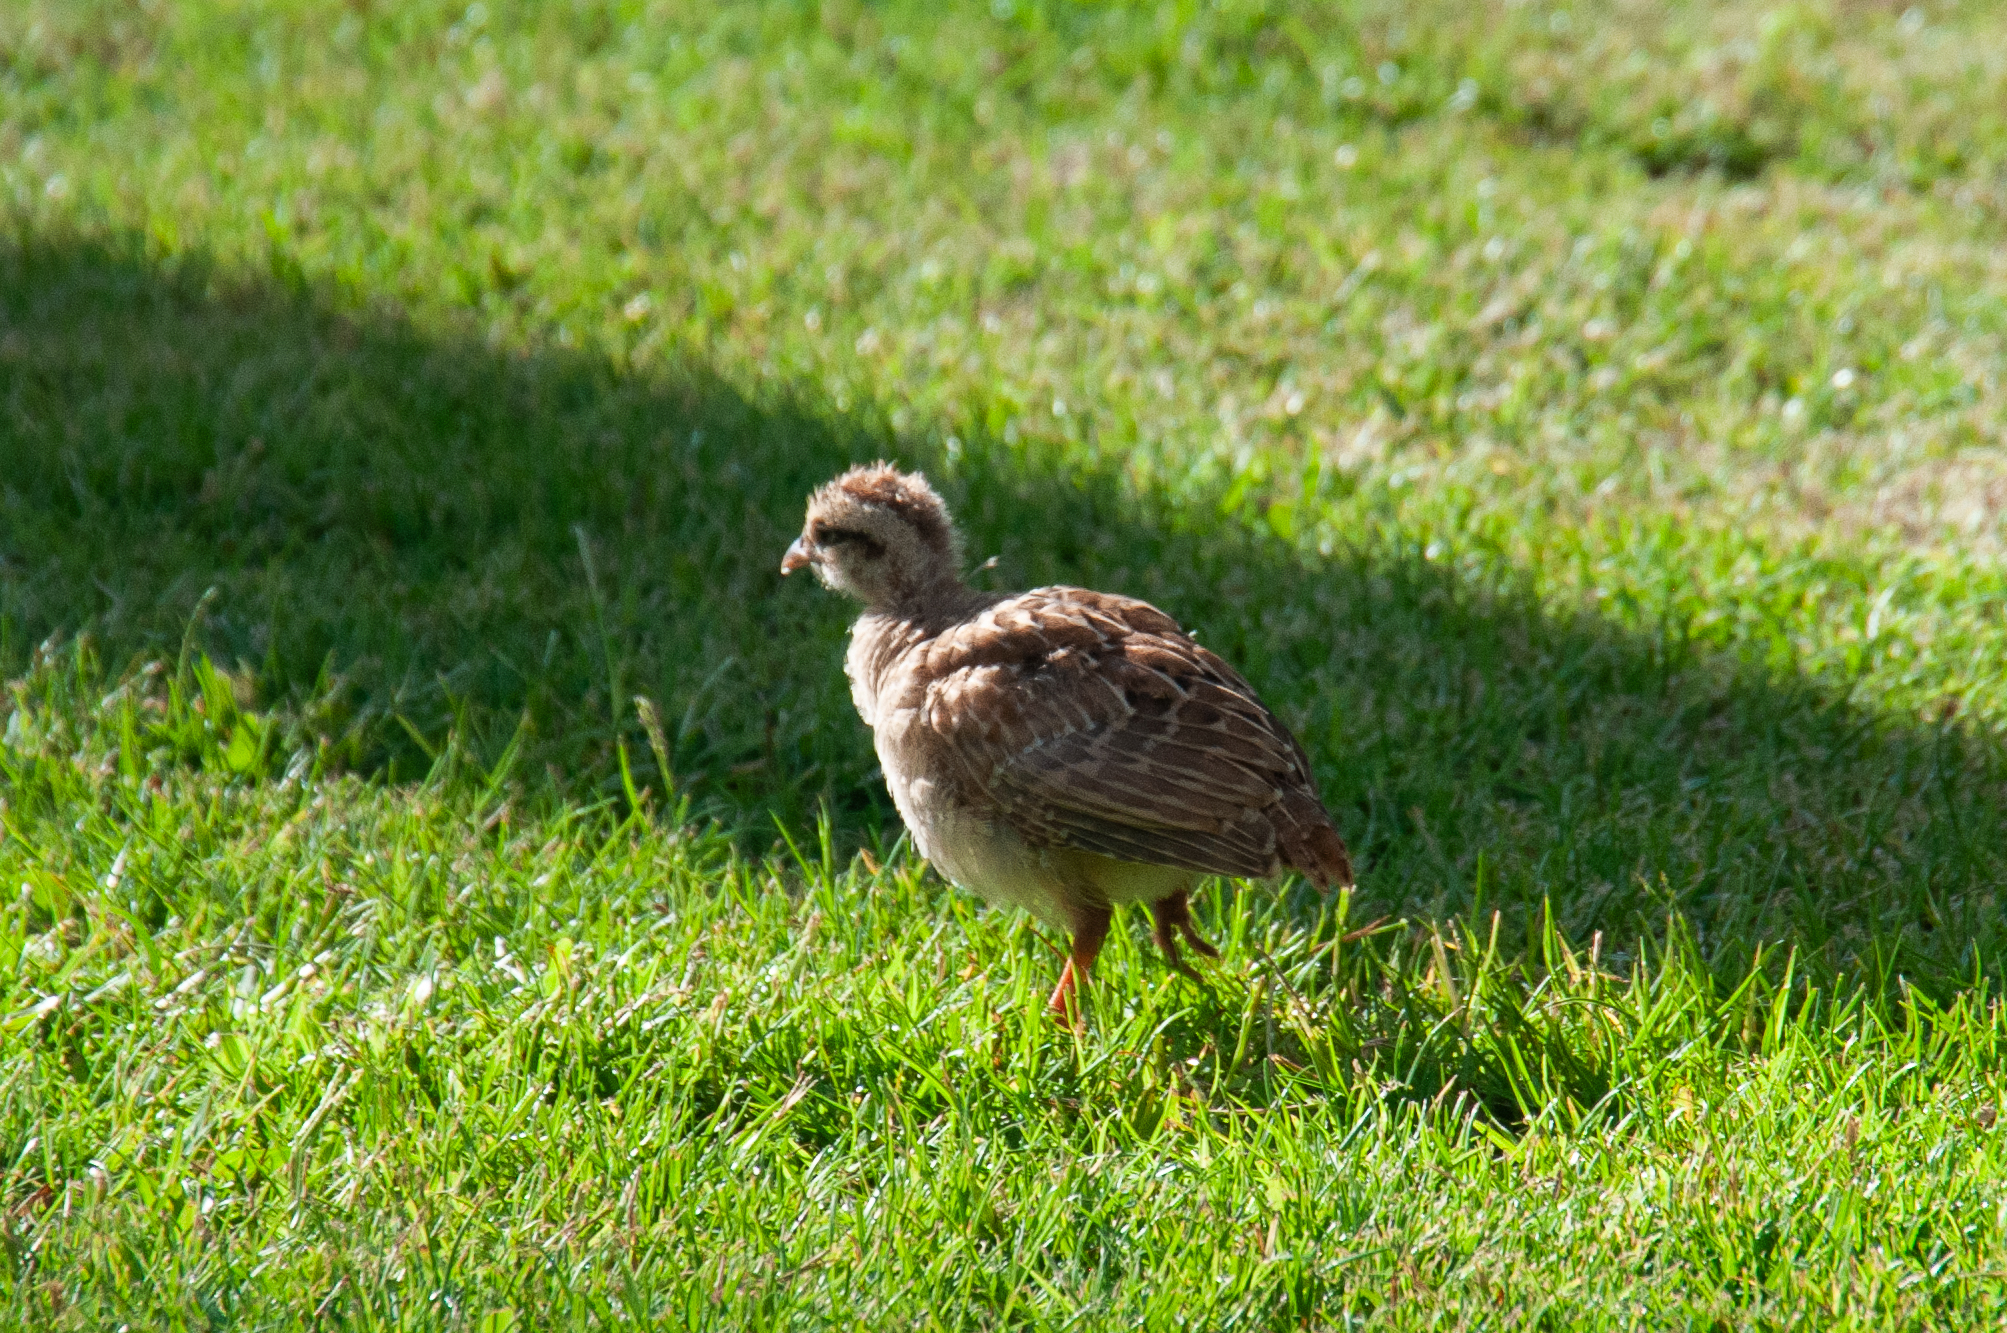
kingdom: Animalia
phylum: Chordata
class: Aves
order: Galliformes
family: Phasianidae
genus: Ortygornis
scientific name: Ortygornis pondicerianus
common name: Grey francolin
